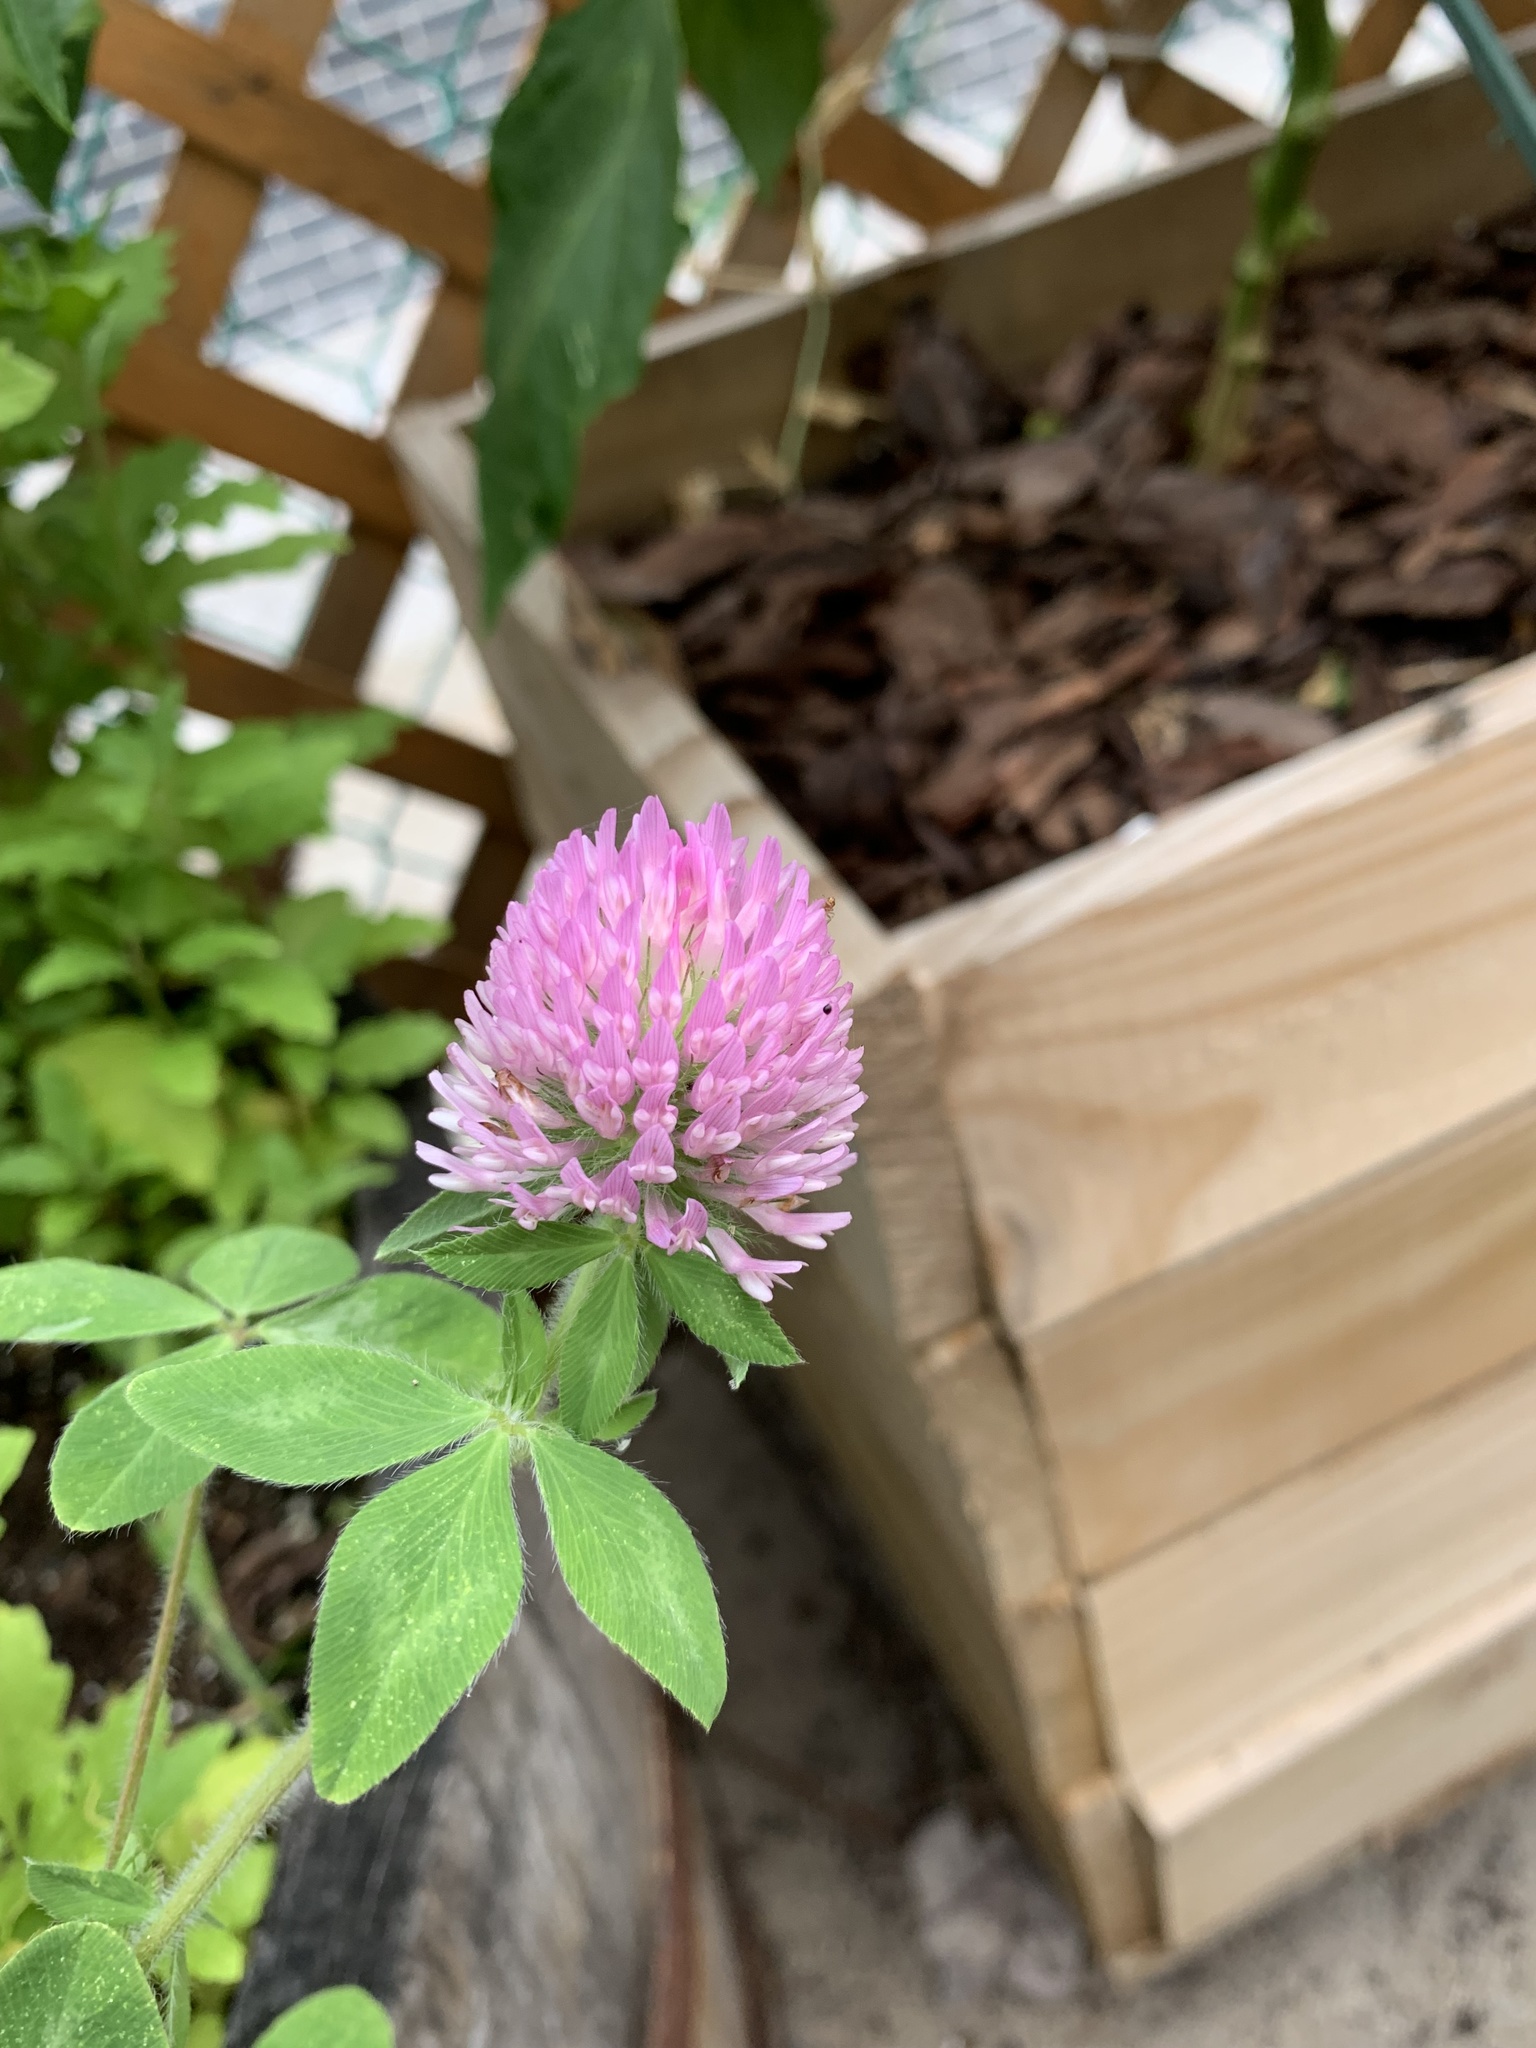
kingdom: Plantae
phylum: Tracheophyta
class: Magnoliopsida
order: Fabales
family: Fabaceae
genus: Trifolium
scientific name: Trifolium pratense
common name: Red clover
